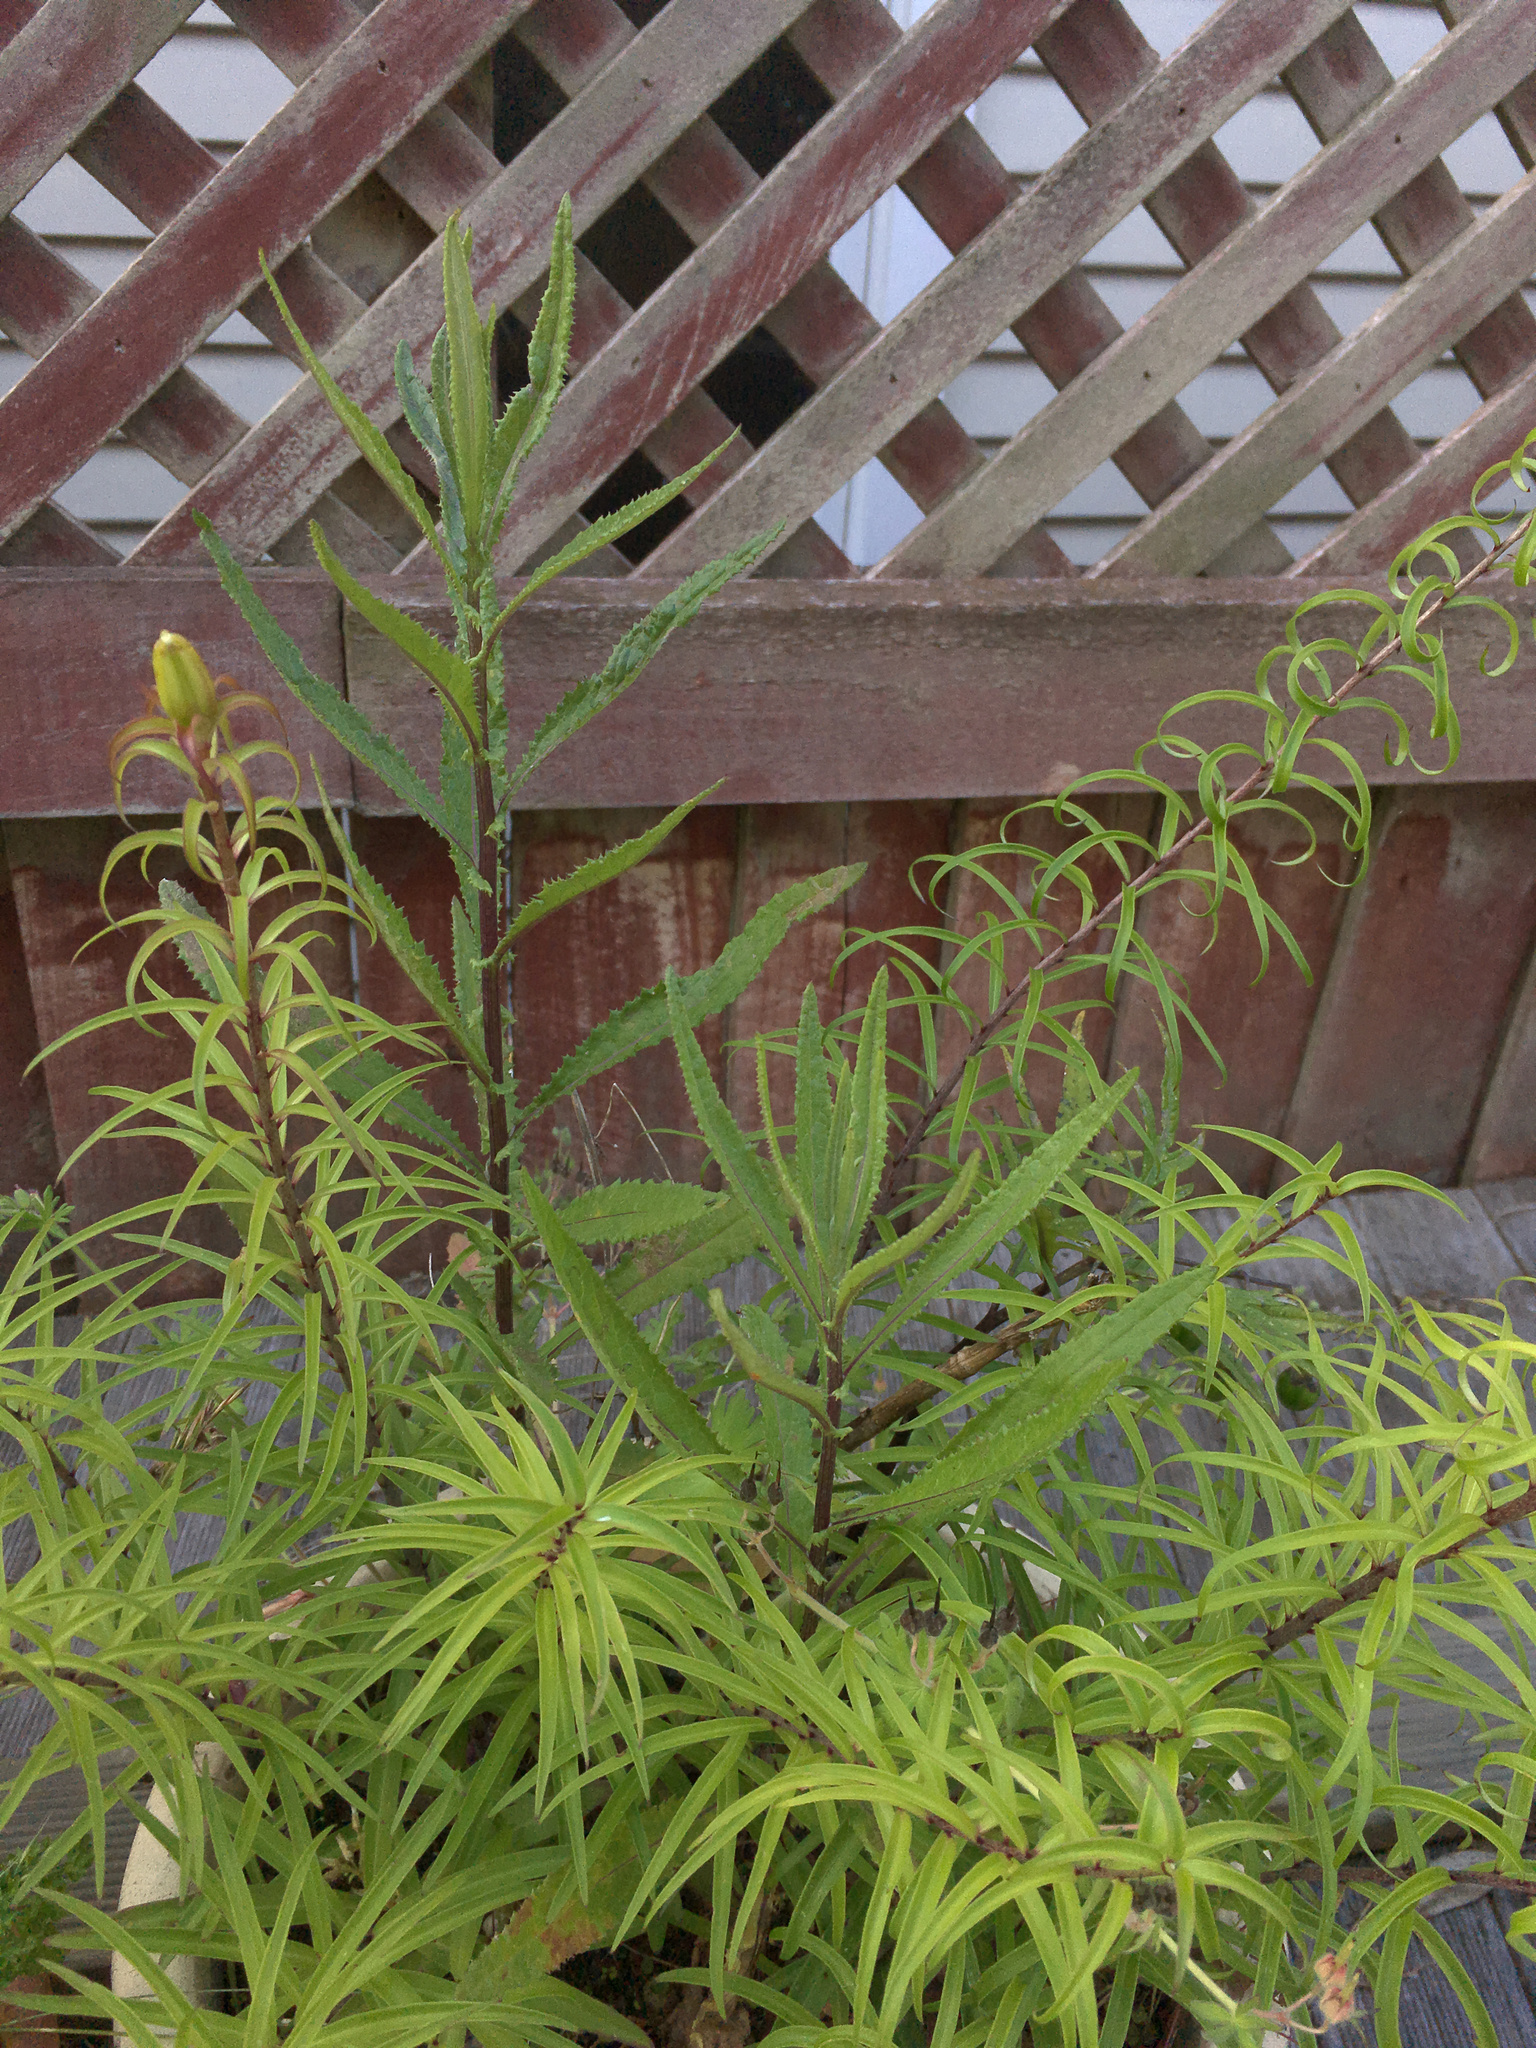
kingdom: Plantae
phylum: Tracheophyta
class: Magnoliopsida
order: Asterales
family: Asteraceae
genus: Senecio
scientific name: Senecio minimus
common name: Toothed fireweed
